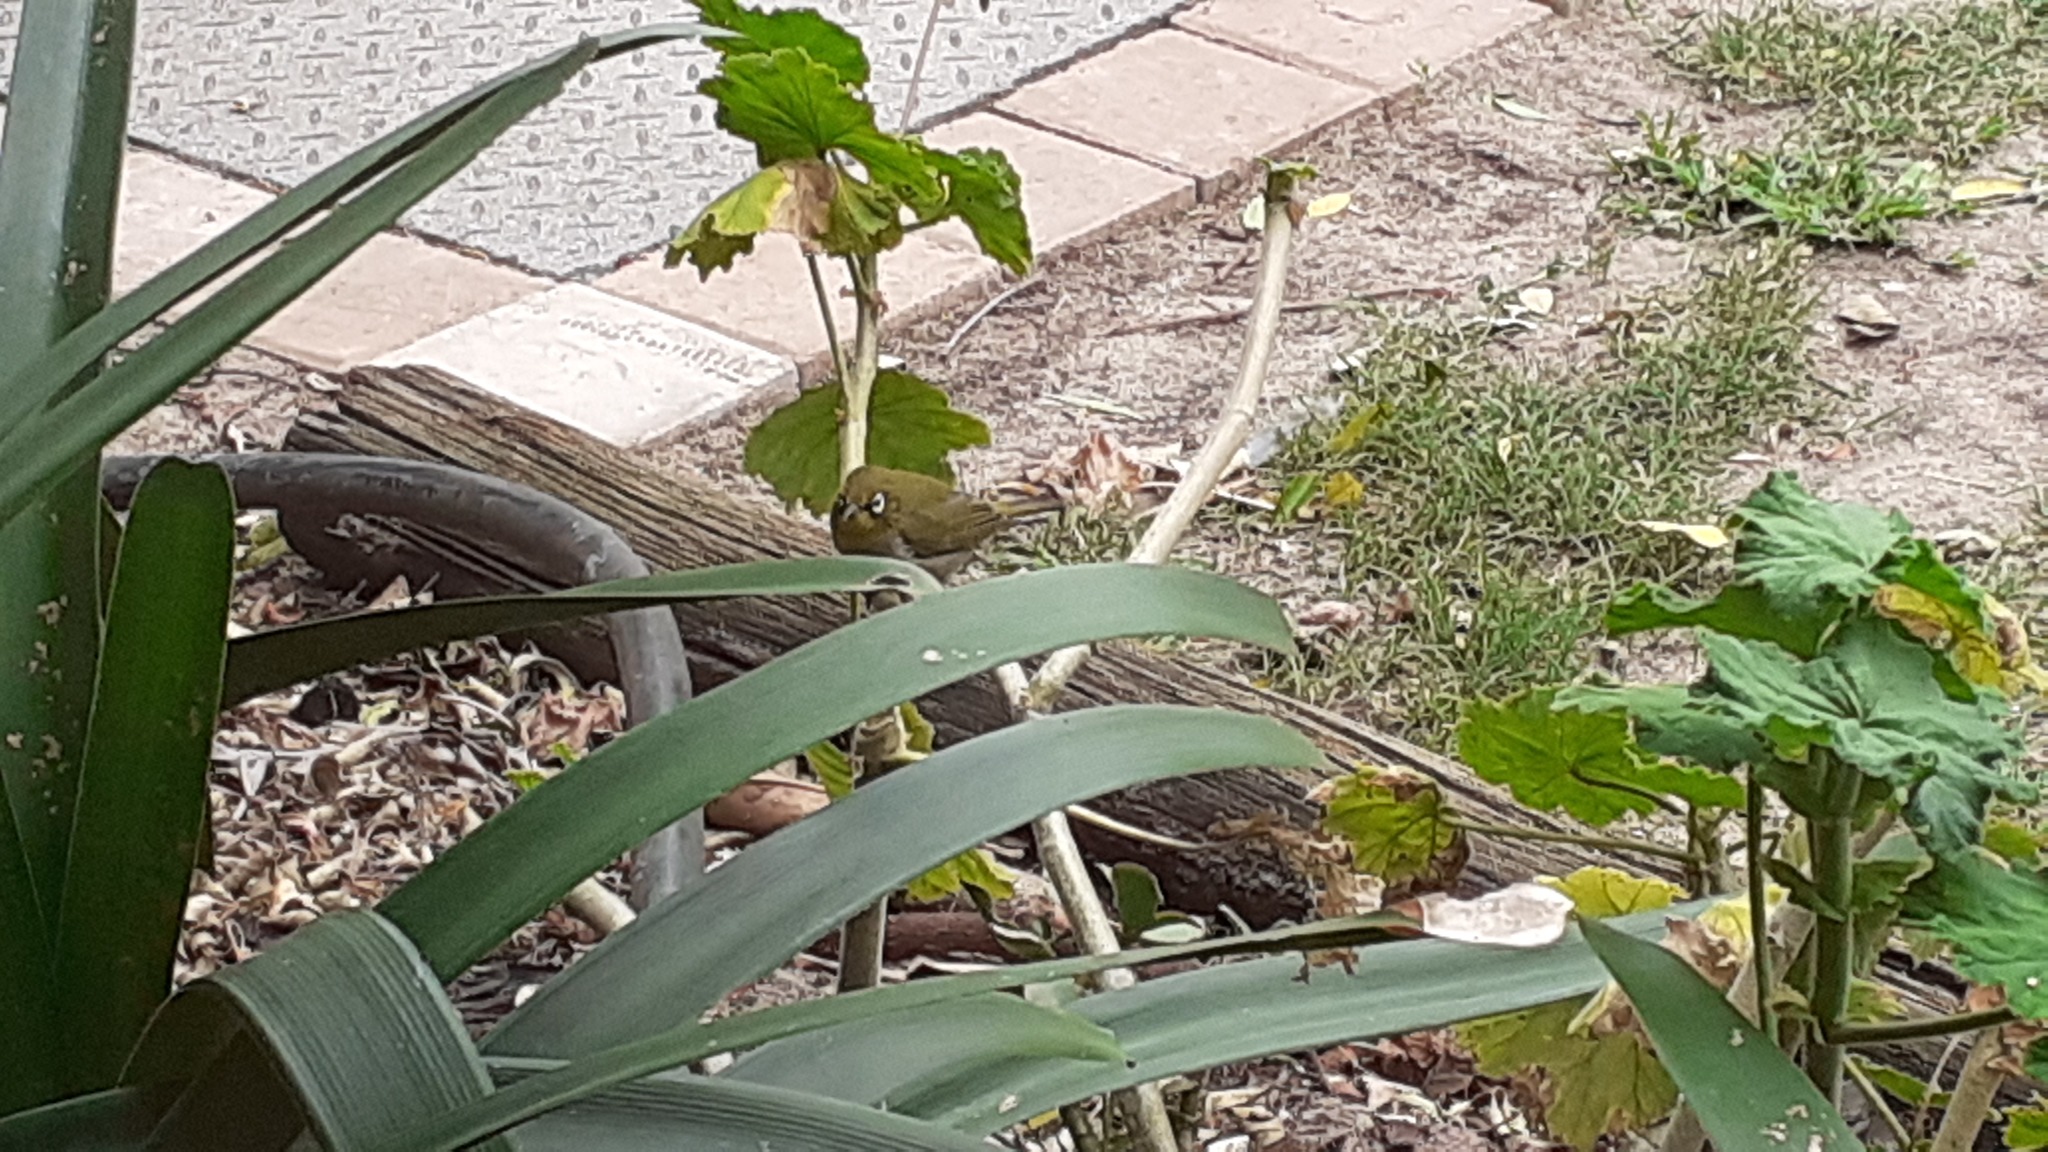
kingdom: Animalia
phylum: Chordata
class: Aves
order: Passeriformes
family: Zosteropidae
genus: Zosterops
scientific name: Zosterops virens
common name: Cape white-eye
